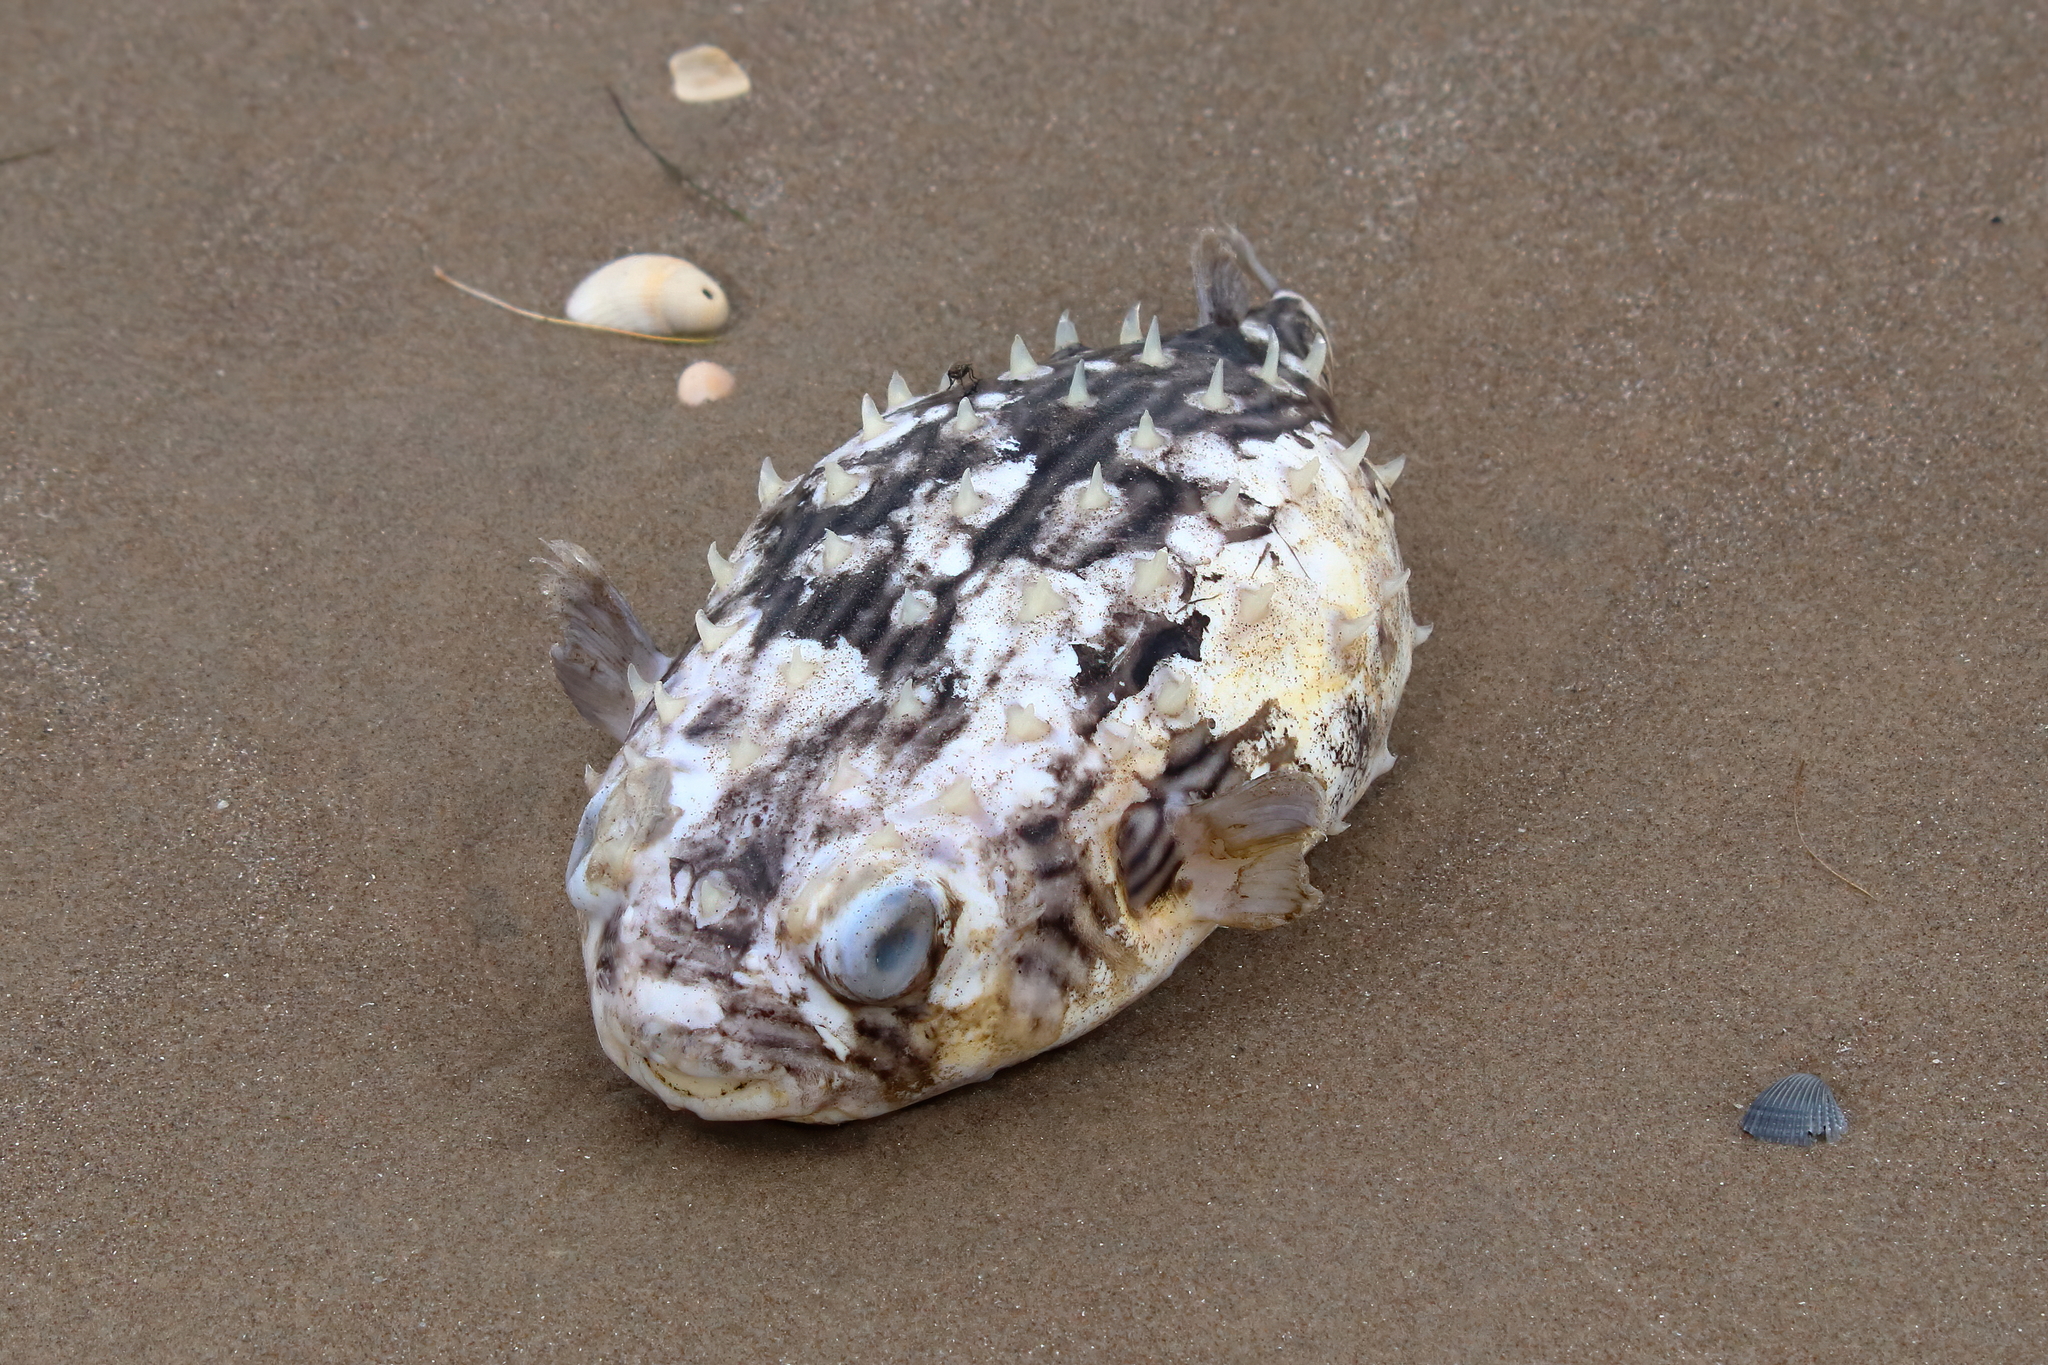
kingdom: Animalia
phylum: Chordata
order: Tetraodontiformes
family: Diodontidae
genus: Chilomycterus
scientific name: Chilomycterus schoepfii
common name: Striped burrfish
